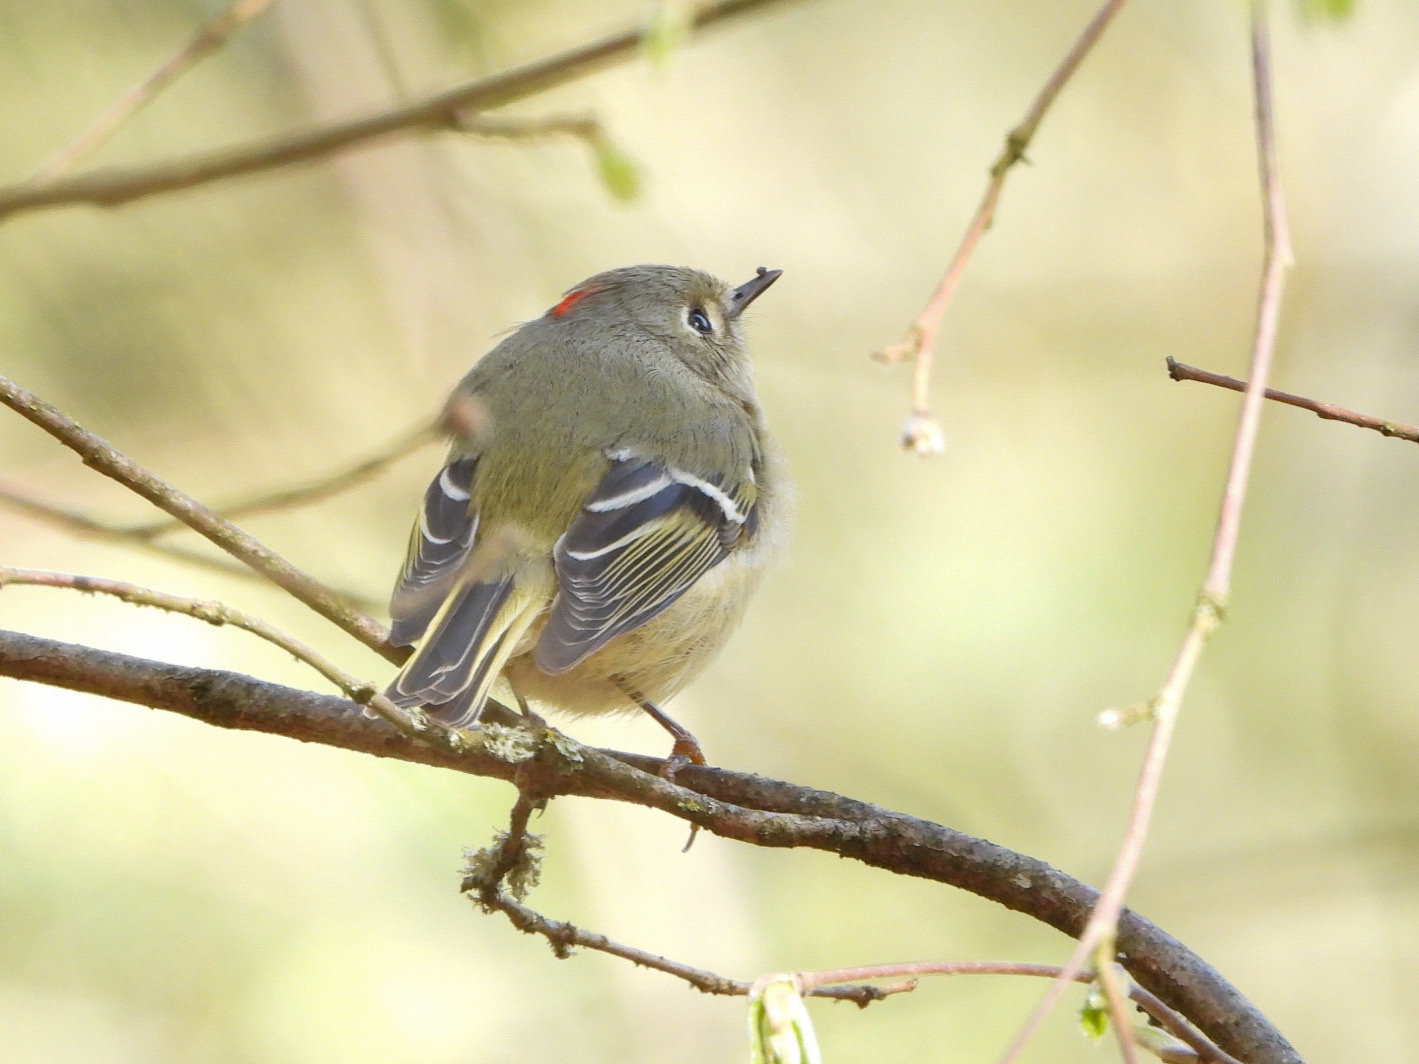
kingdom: Animalia
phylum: Chordata
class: Aves
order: Passeriformes
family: Regulidae
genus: Regulus
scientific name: Regulus calendula
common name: Ruby-crowned kinglet
